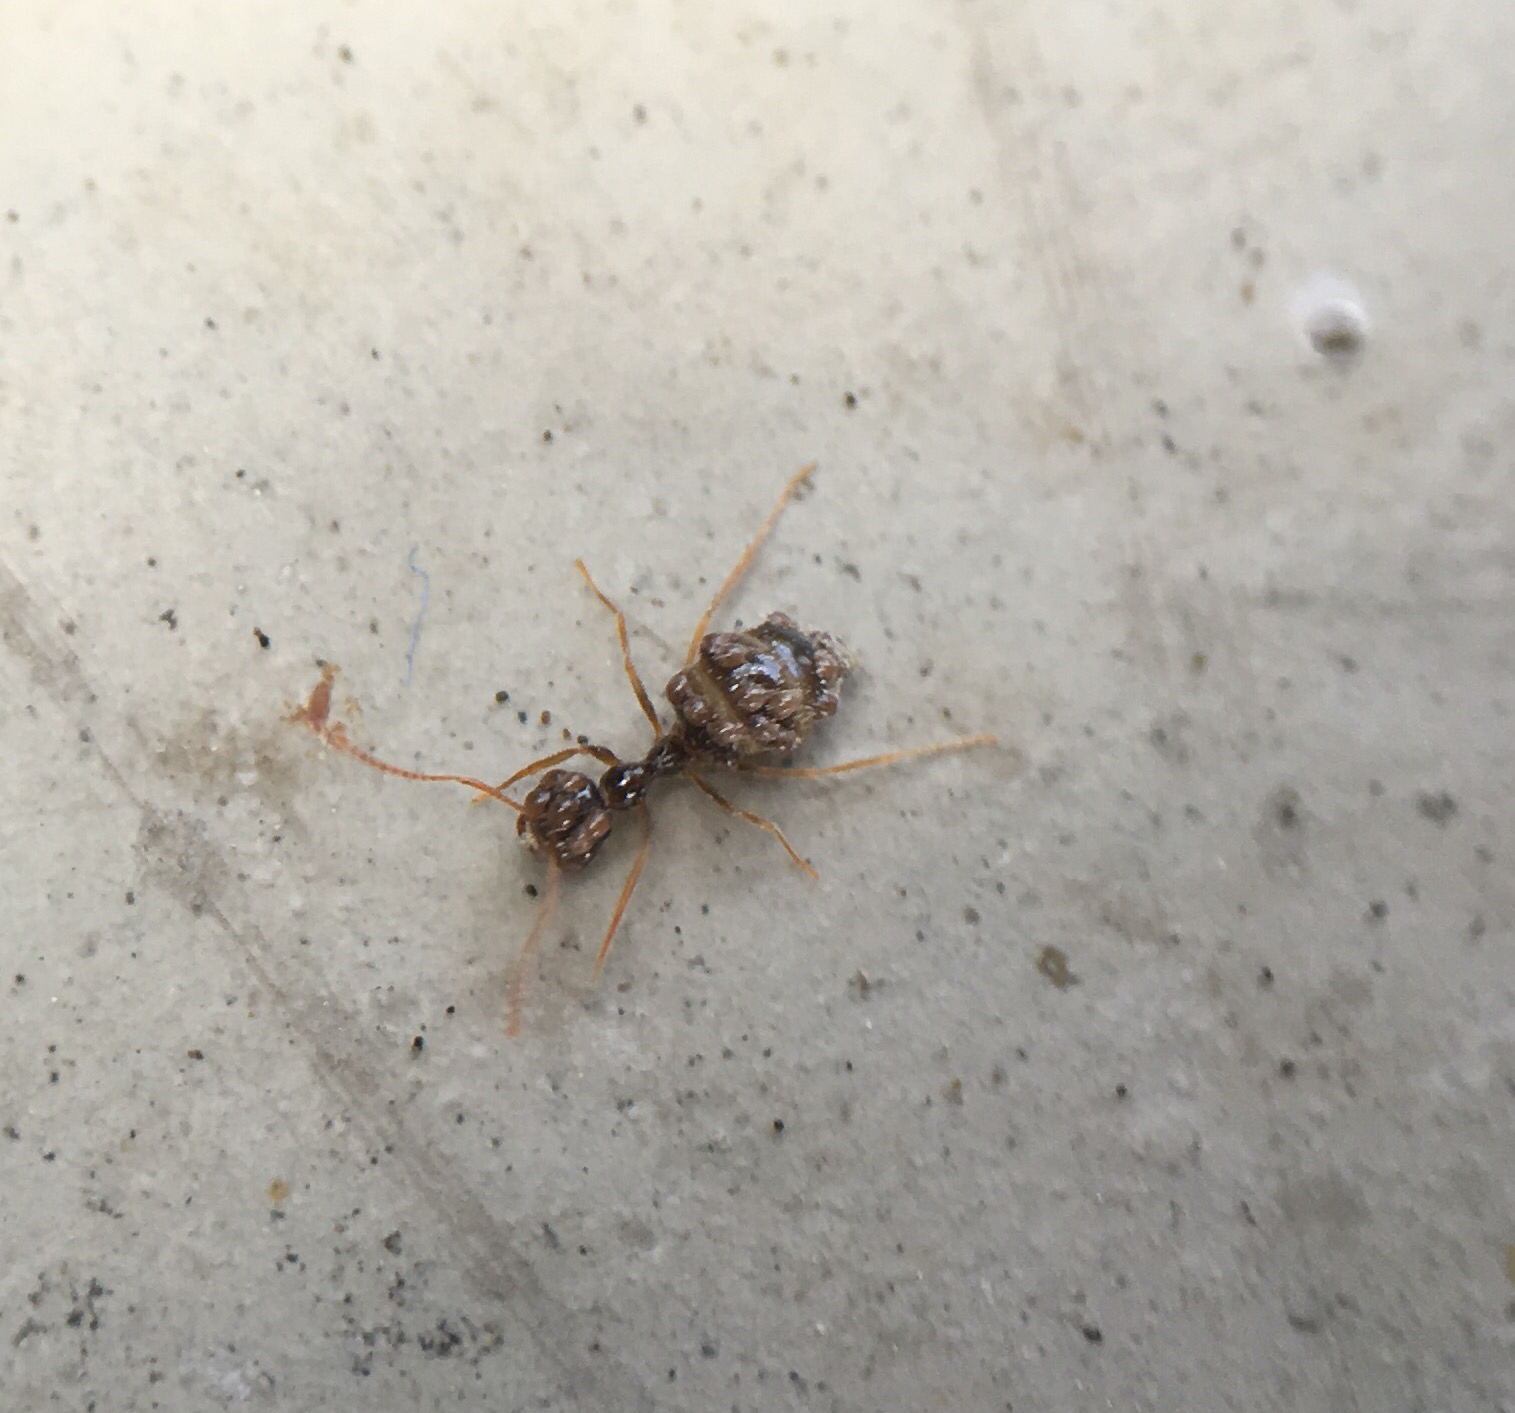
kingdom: Animalia
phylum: Arthropoda
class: Insecta
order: Hymenoptera
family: Formicidae
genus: Prenolepis
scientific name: Prenolepis imparis
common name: Small honey ant
